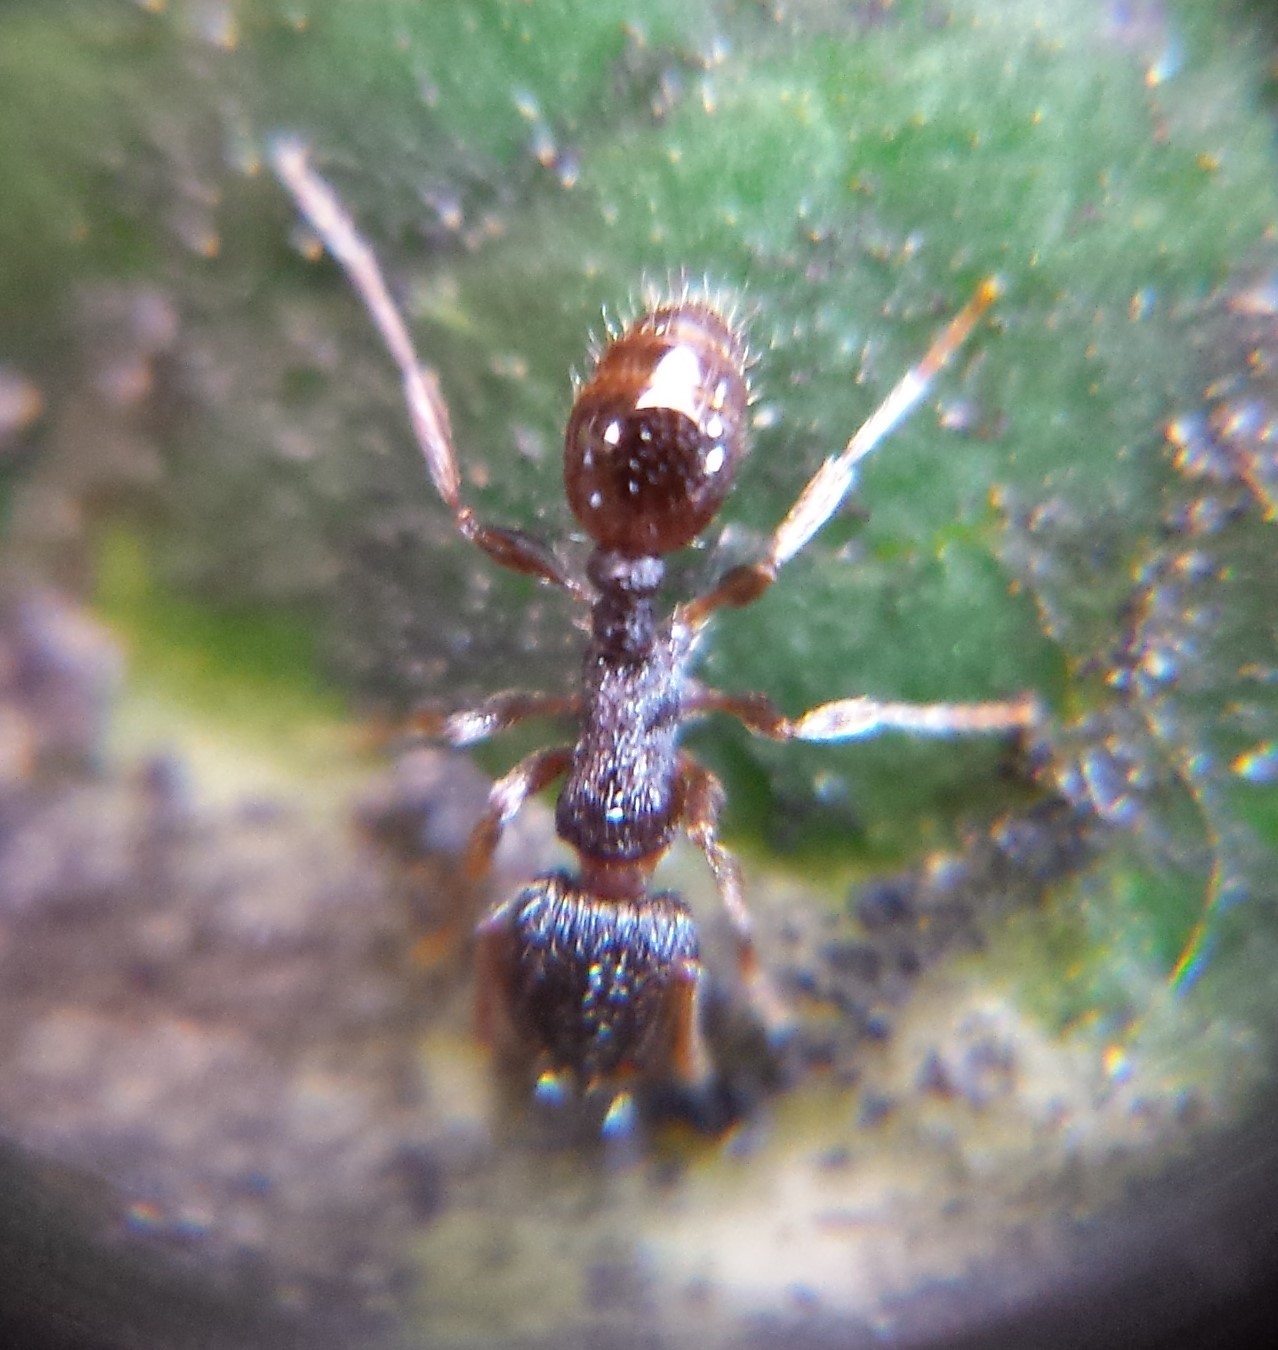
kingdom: Animalia
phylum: Arthropoda
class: Insecta
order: Hymenoptera
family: Formicidae
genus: Tetramorium
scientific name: Tetramorium immigrans
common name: Pavement ant
